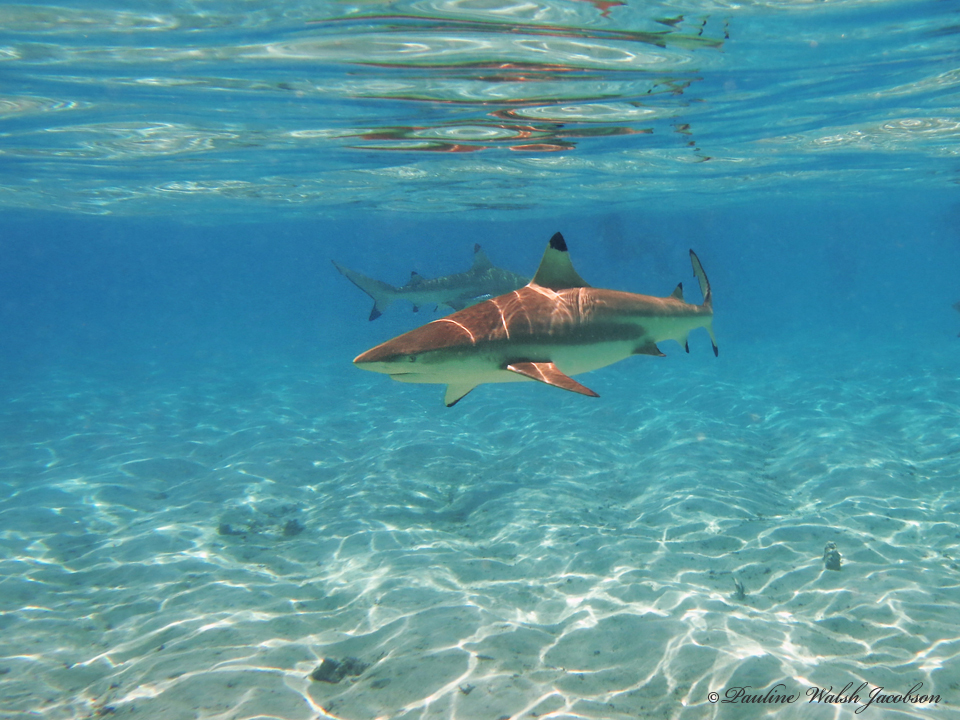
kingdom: Animalia
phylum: Chordata
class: Elasmobranchii
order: Carcharhiniformes
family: Carcharhinidae
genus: Carcharhinus
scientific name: Carcharhinus melanopterus
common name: Blacktip reef shark
